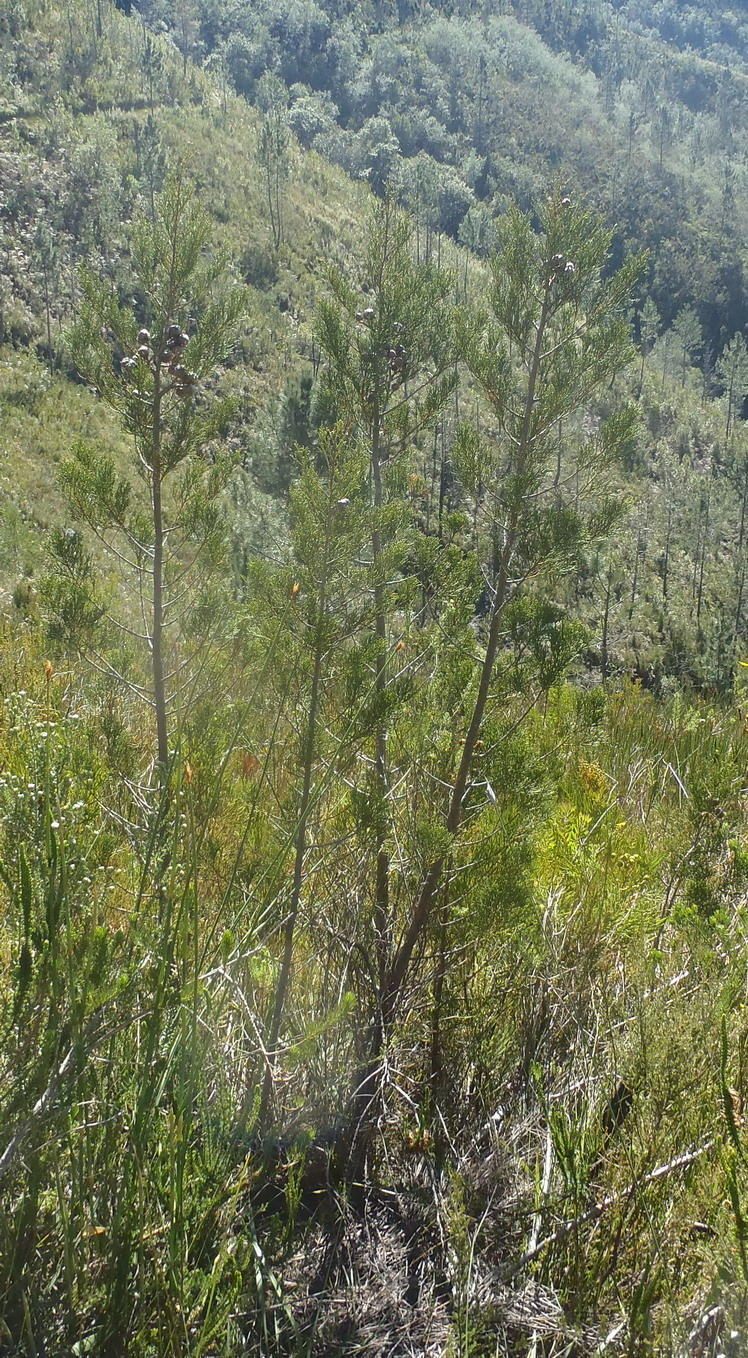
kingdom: Plantae
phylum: Tracheophyta
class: Pinopsida
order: Pinales
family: Cupressaceae
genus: Widdringtonia
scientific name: Widdringtonia nodiflora
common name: Cape cypress
